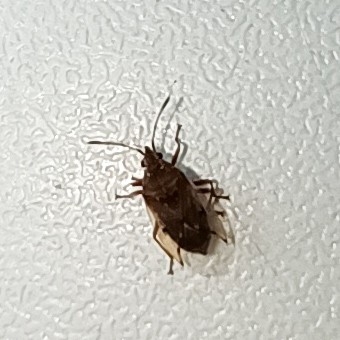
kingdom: Animalia
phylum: Arthropoda
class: Insecta
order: Hemiptera
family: Lygaeidae
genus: Kleidocerys
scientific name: Kleidocerys resedae
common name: Birch catkin bug
